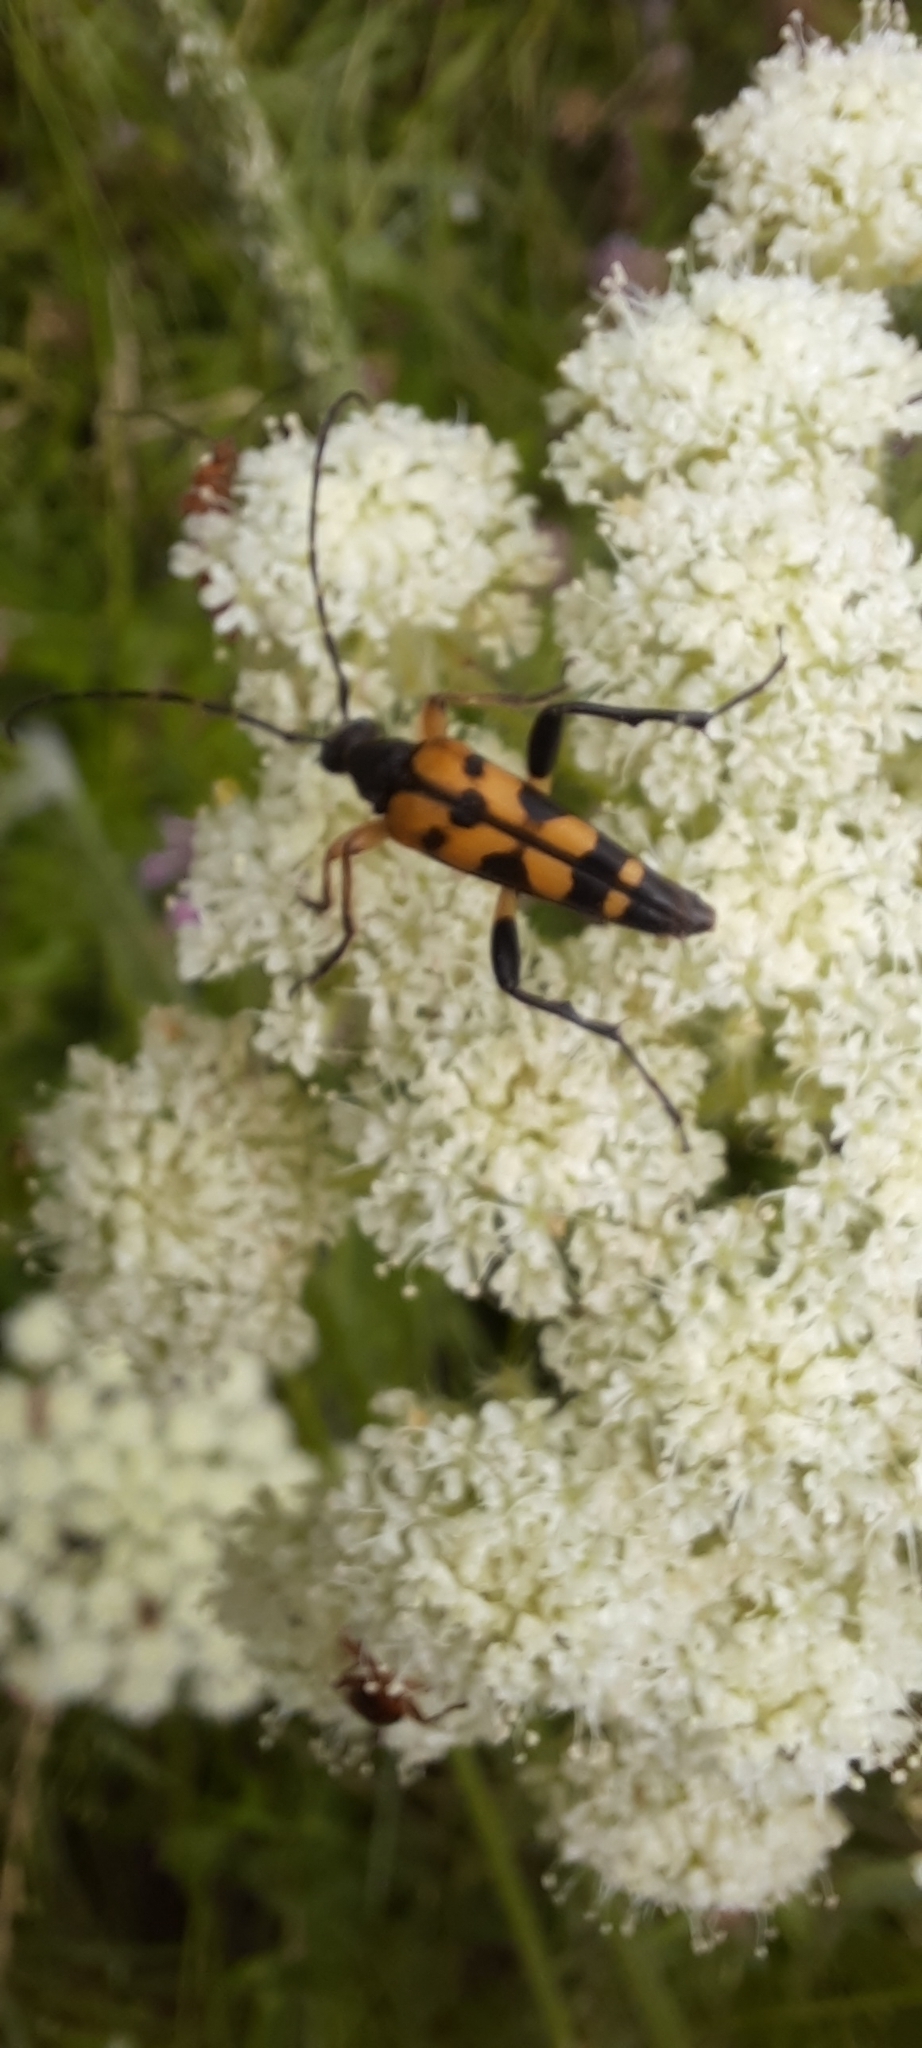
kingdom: Animalia
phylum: Arthropoda
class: Insecta
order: Coleoptera
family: Cerambycidae
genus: Rutpela
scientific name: Rutpela maculata
